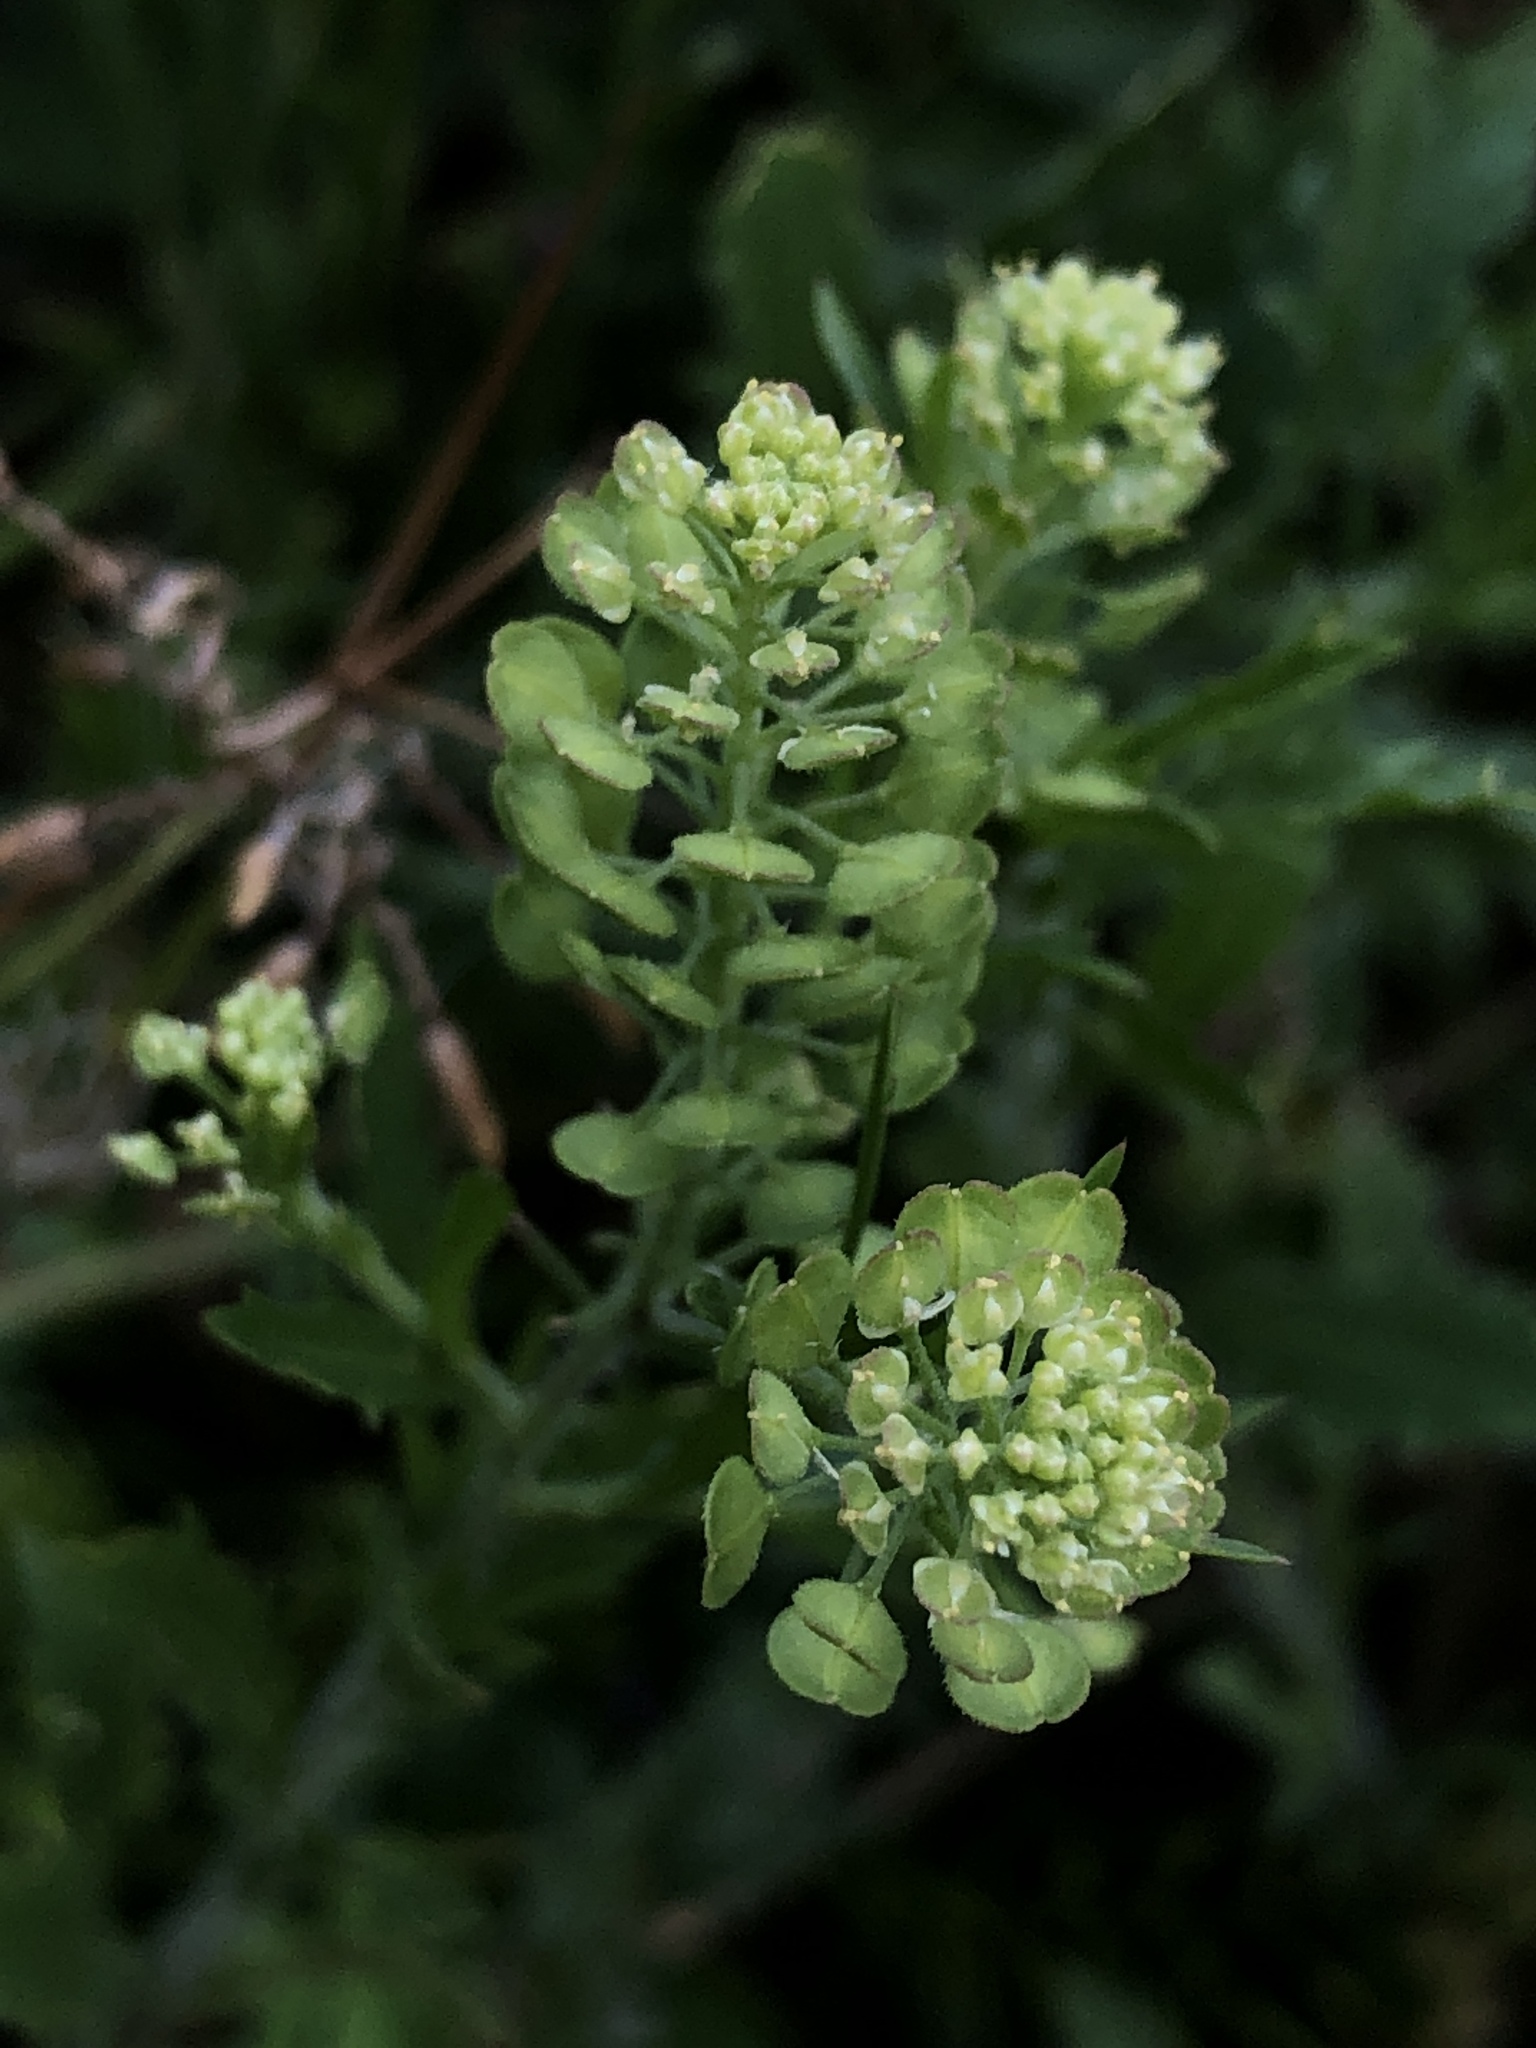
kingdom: Plantae
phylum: Tracheophyta
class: Magnoliopsida
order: Brassicales
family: Brassicaceae
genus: Lepidium
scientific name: Lepidium austrinum
